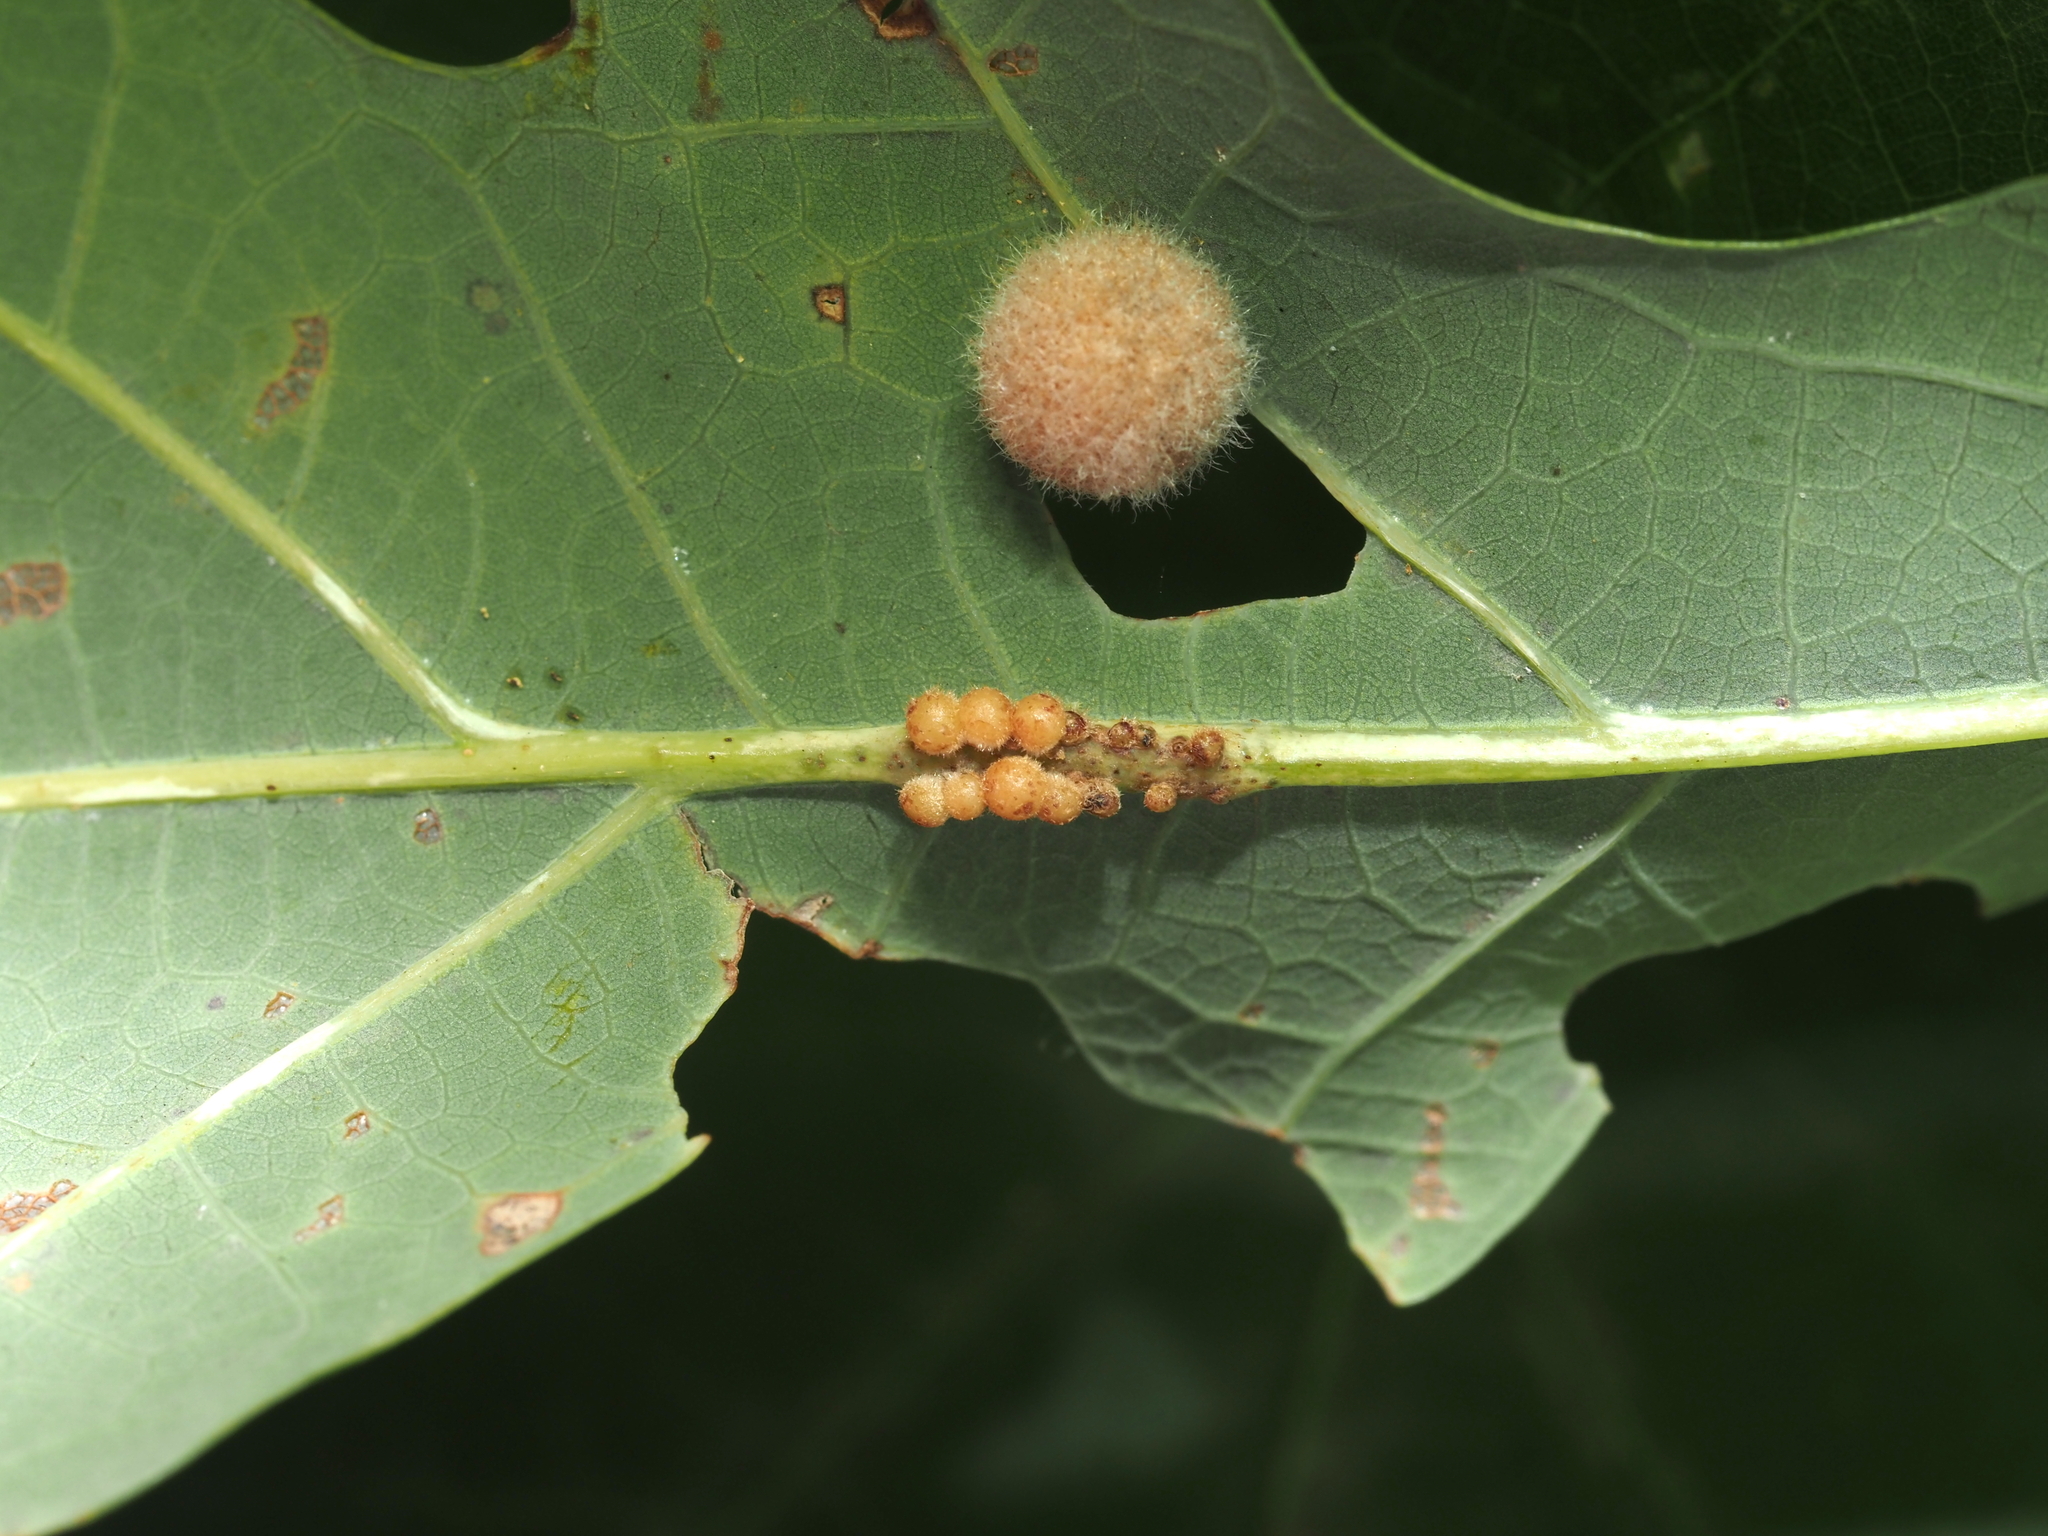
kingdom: Animalia
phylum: Arthropoda
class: Insecta
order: Hymenoptera
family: Cynipidae
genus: Andricus
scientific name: Andricus
